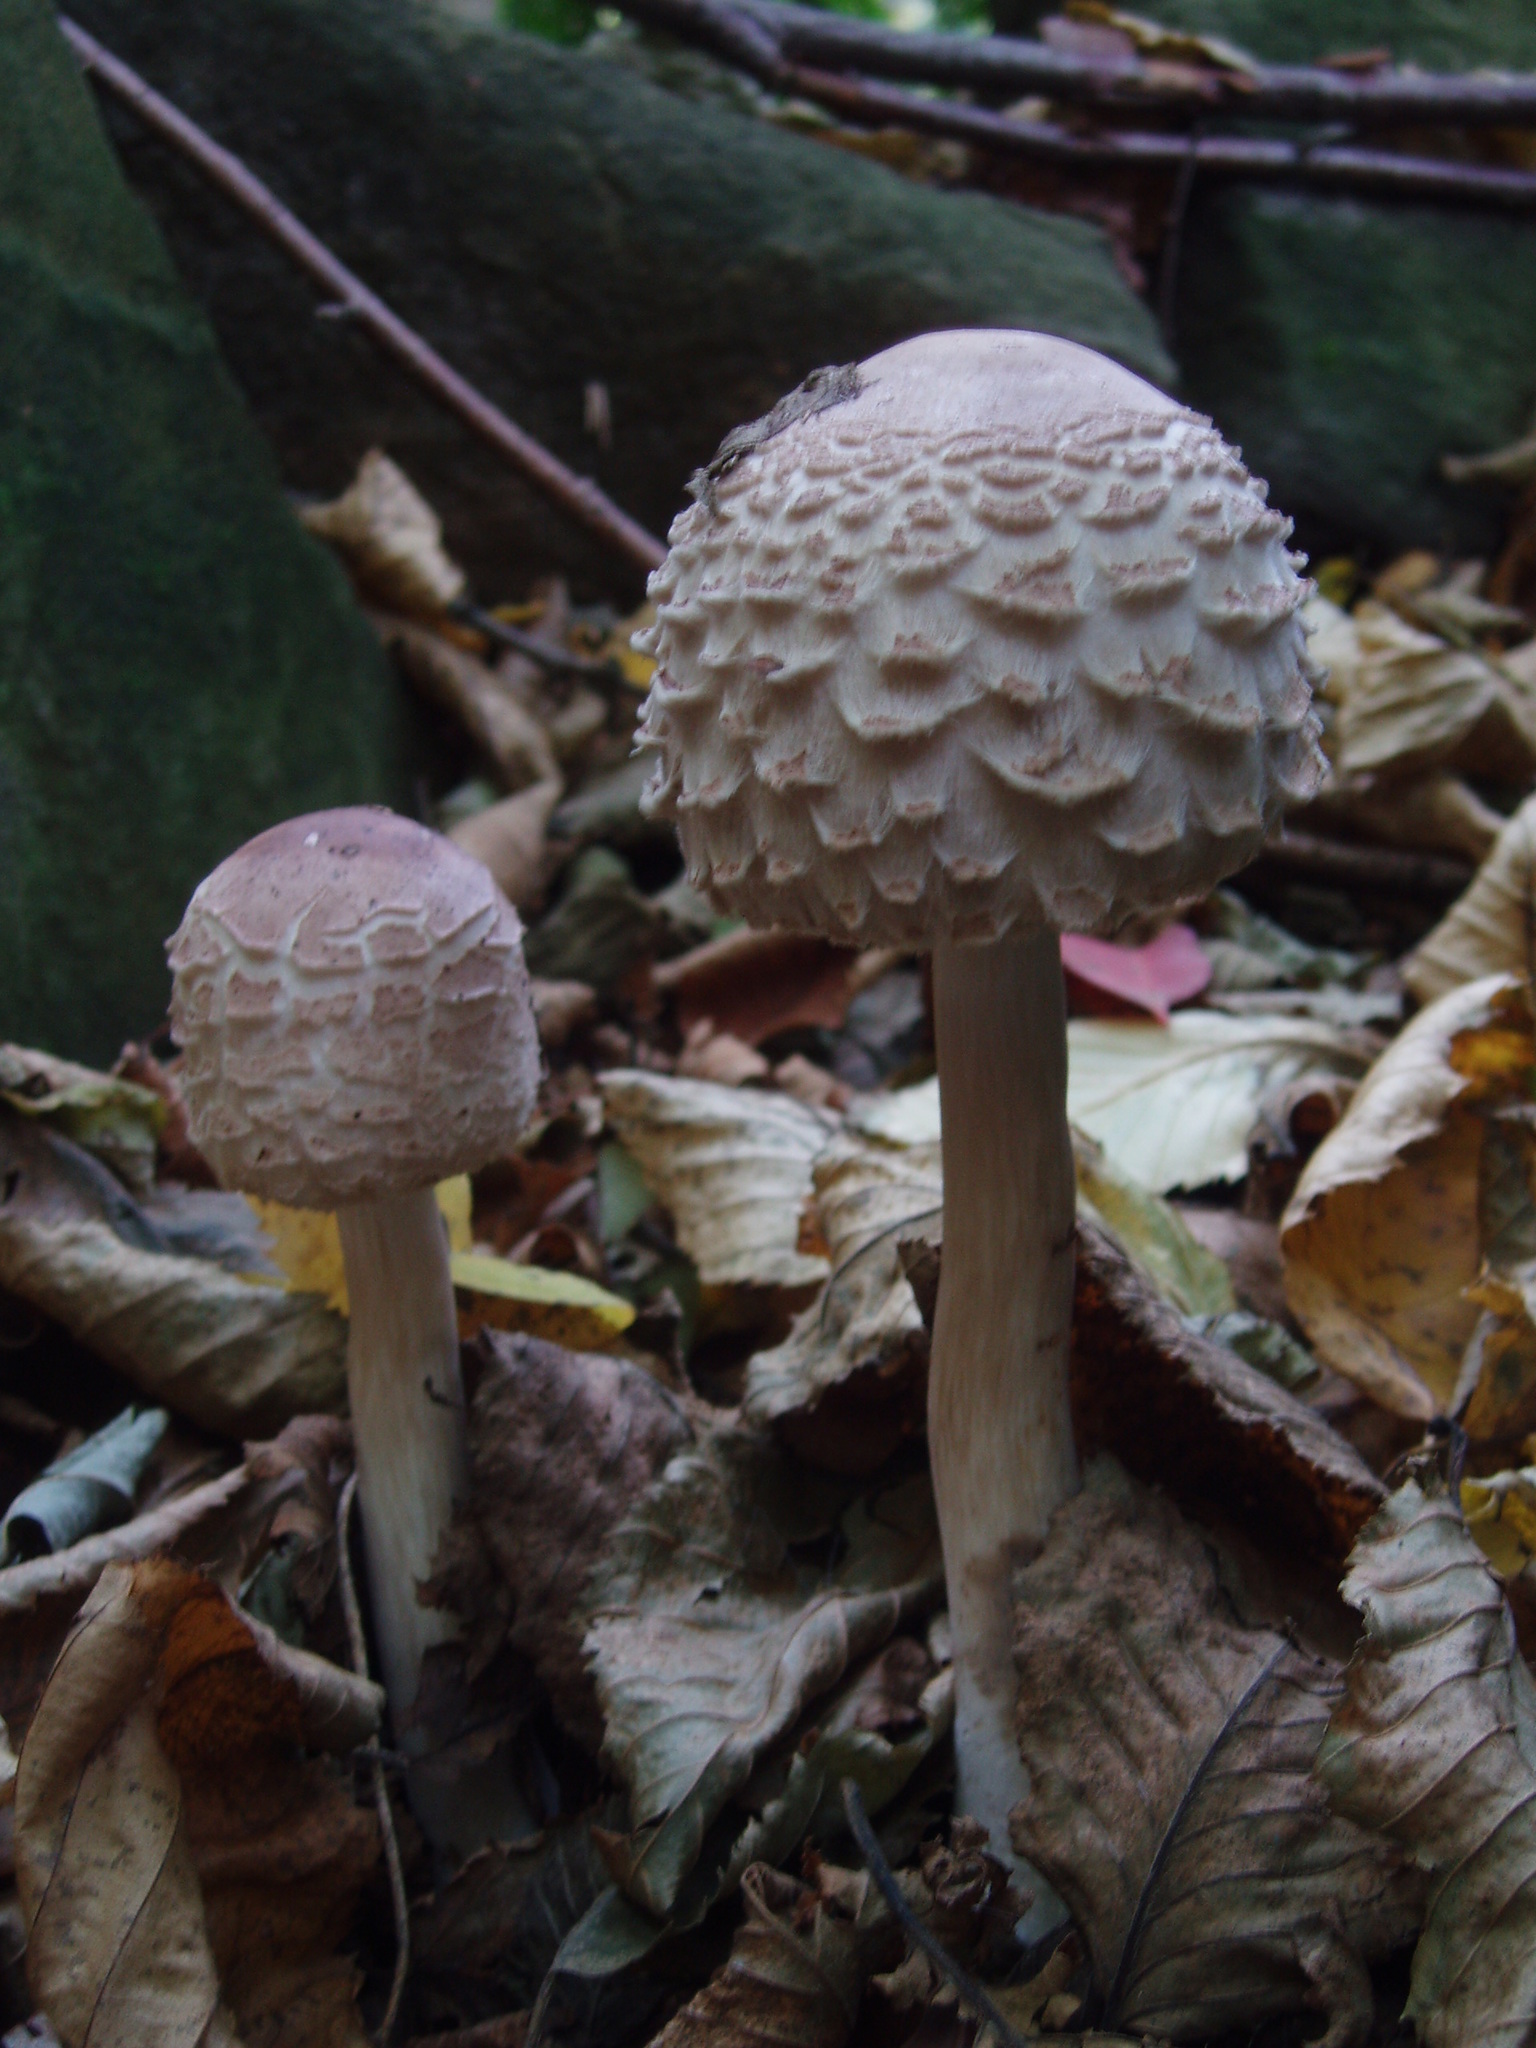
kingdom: Fungi
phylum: Basidiomycota
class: Agaricomycetes
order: Agaricales
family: Agaricaceae
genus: Chlorophyllum
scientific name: Chlorophyllum rhacodes
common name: Shaggy parasol
